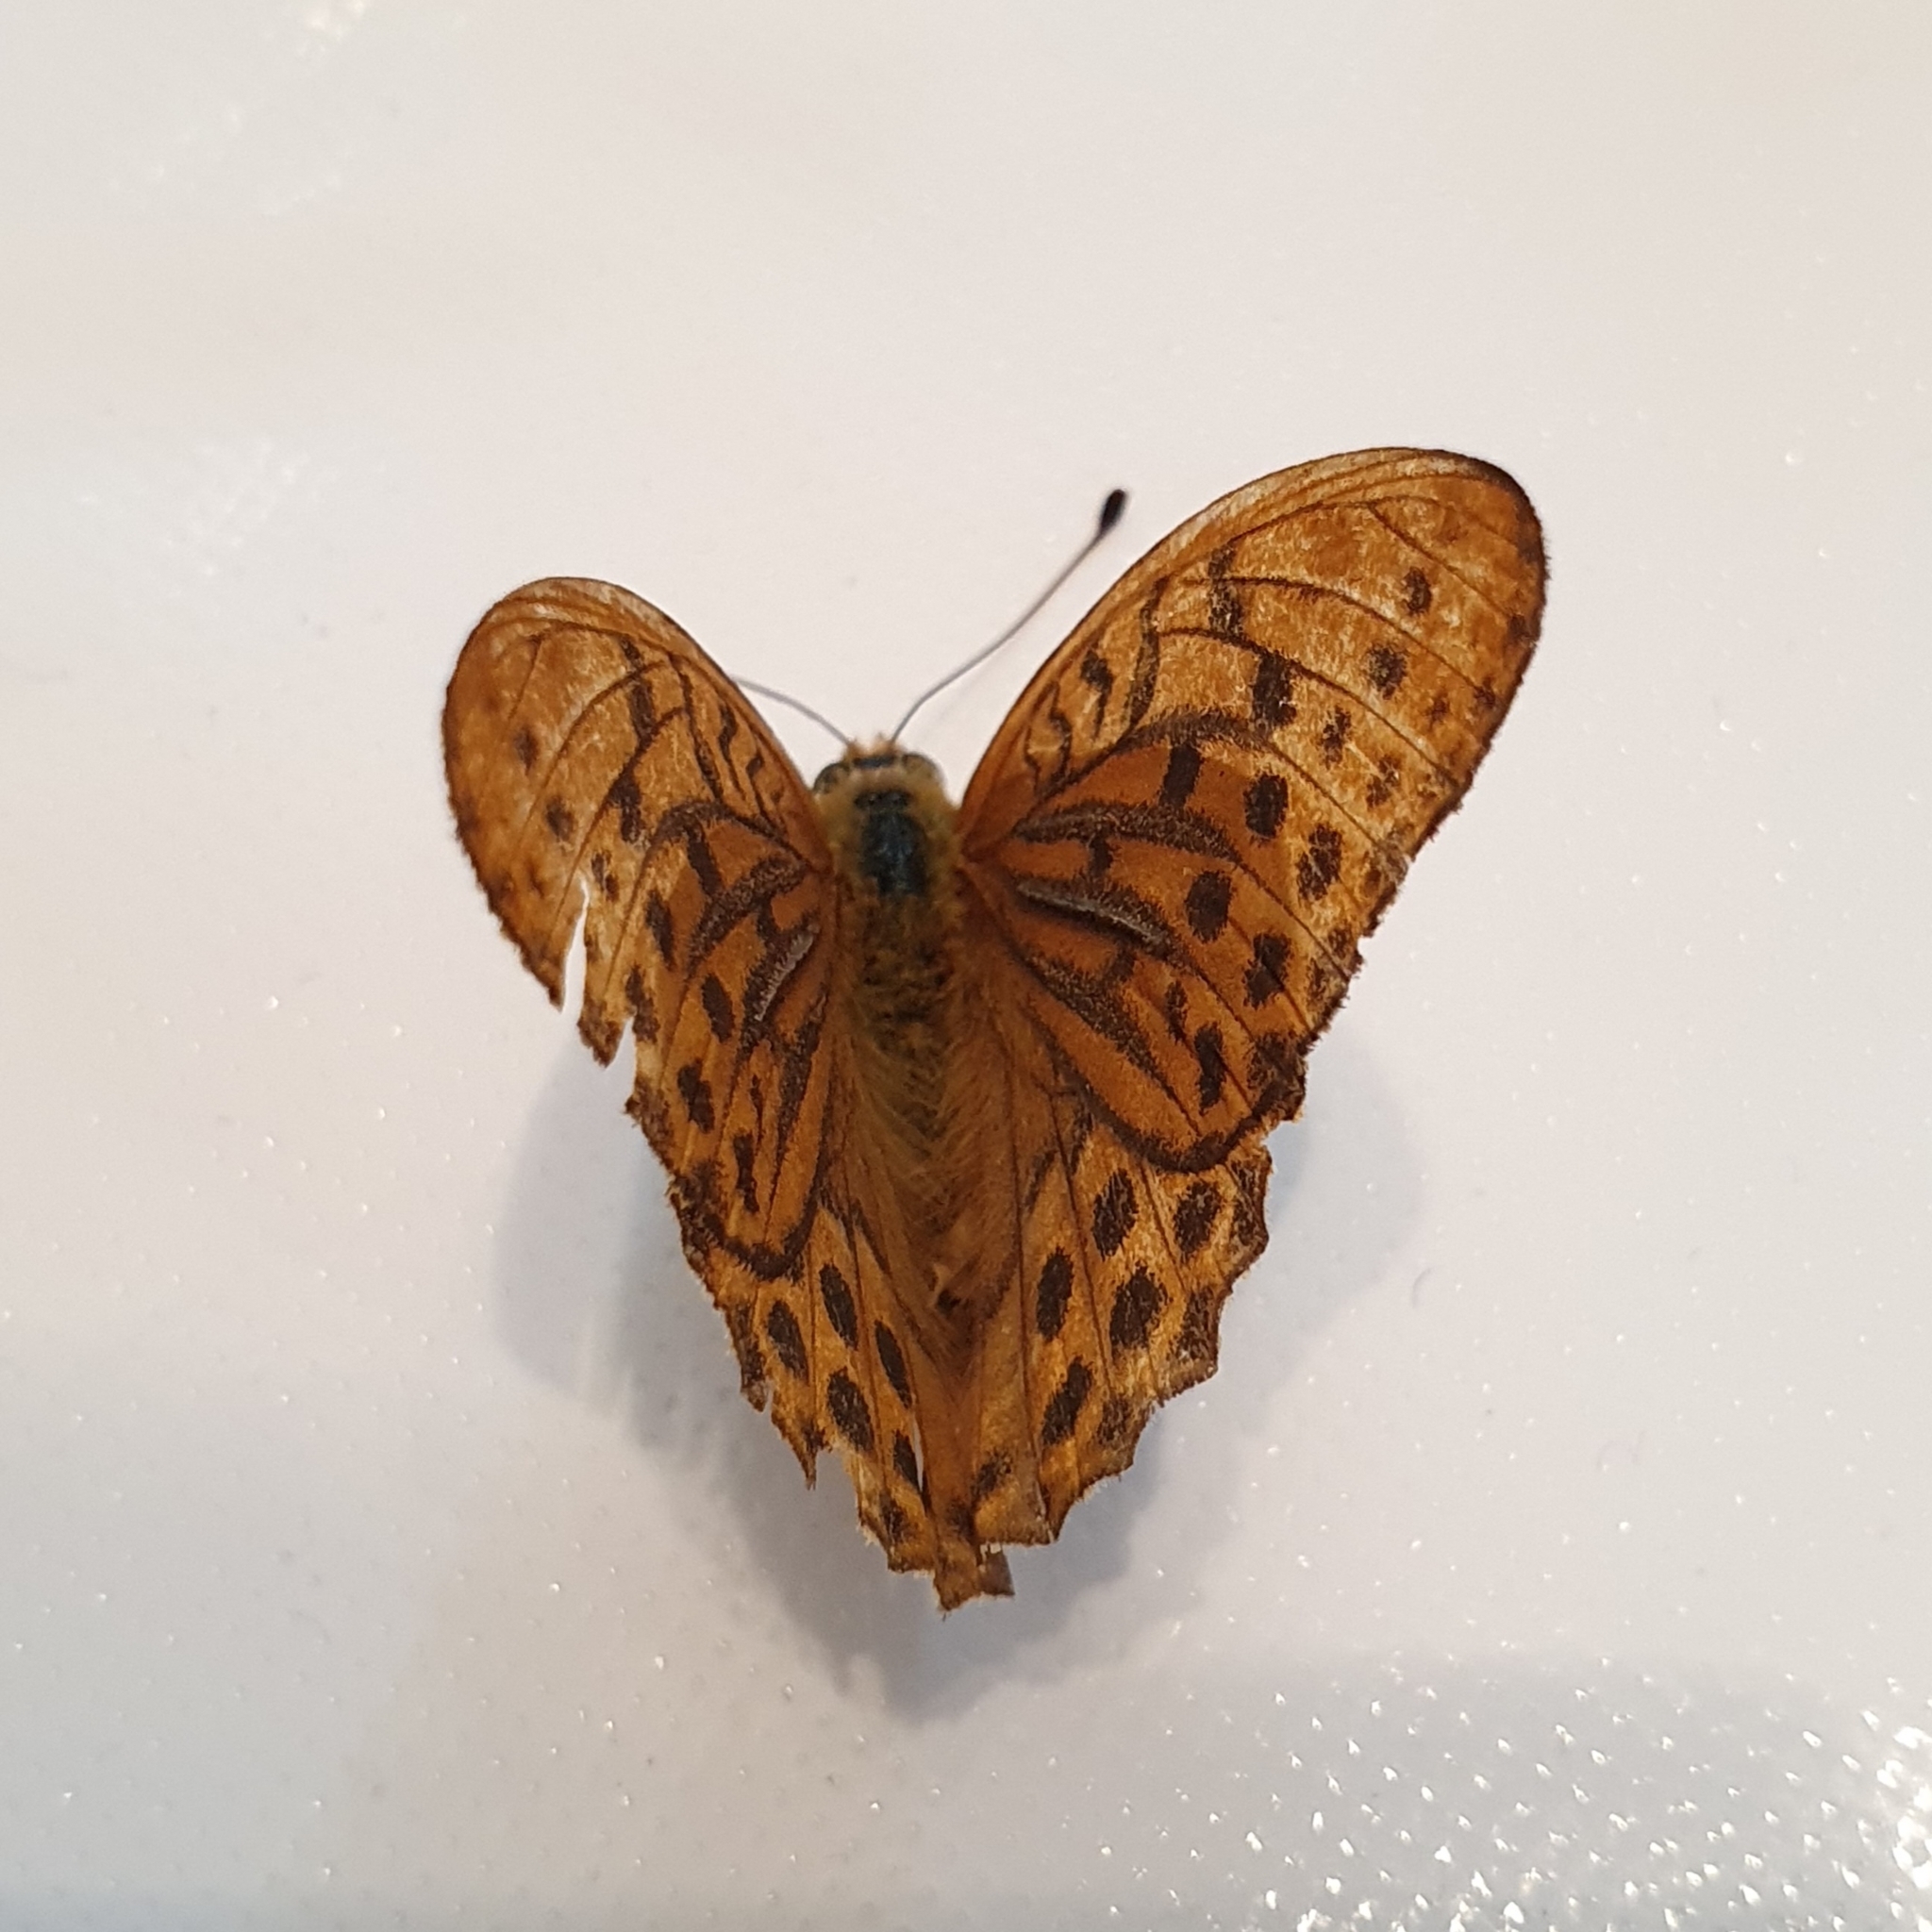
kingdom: Animalia
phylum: Arthropoda
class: Insecta
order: Lepidoptera
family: Nymphalidae
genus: Argynnis
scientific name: Argynnis paphia
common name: Silver-washed fritillary
